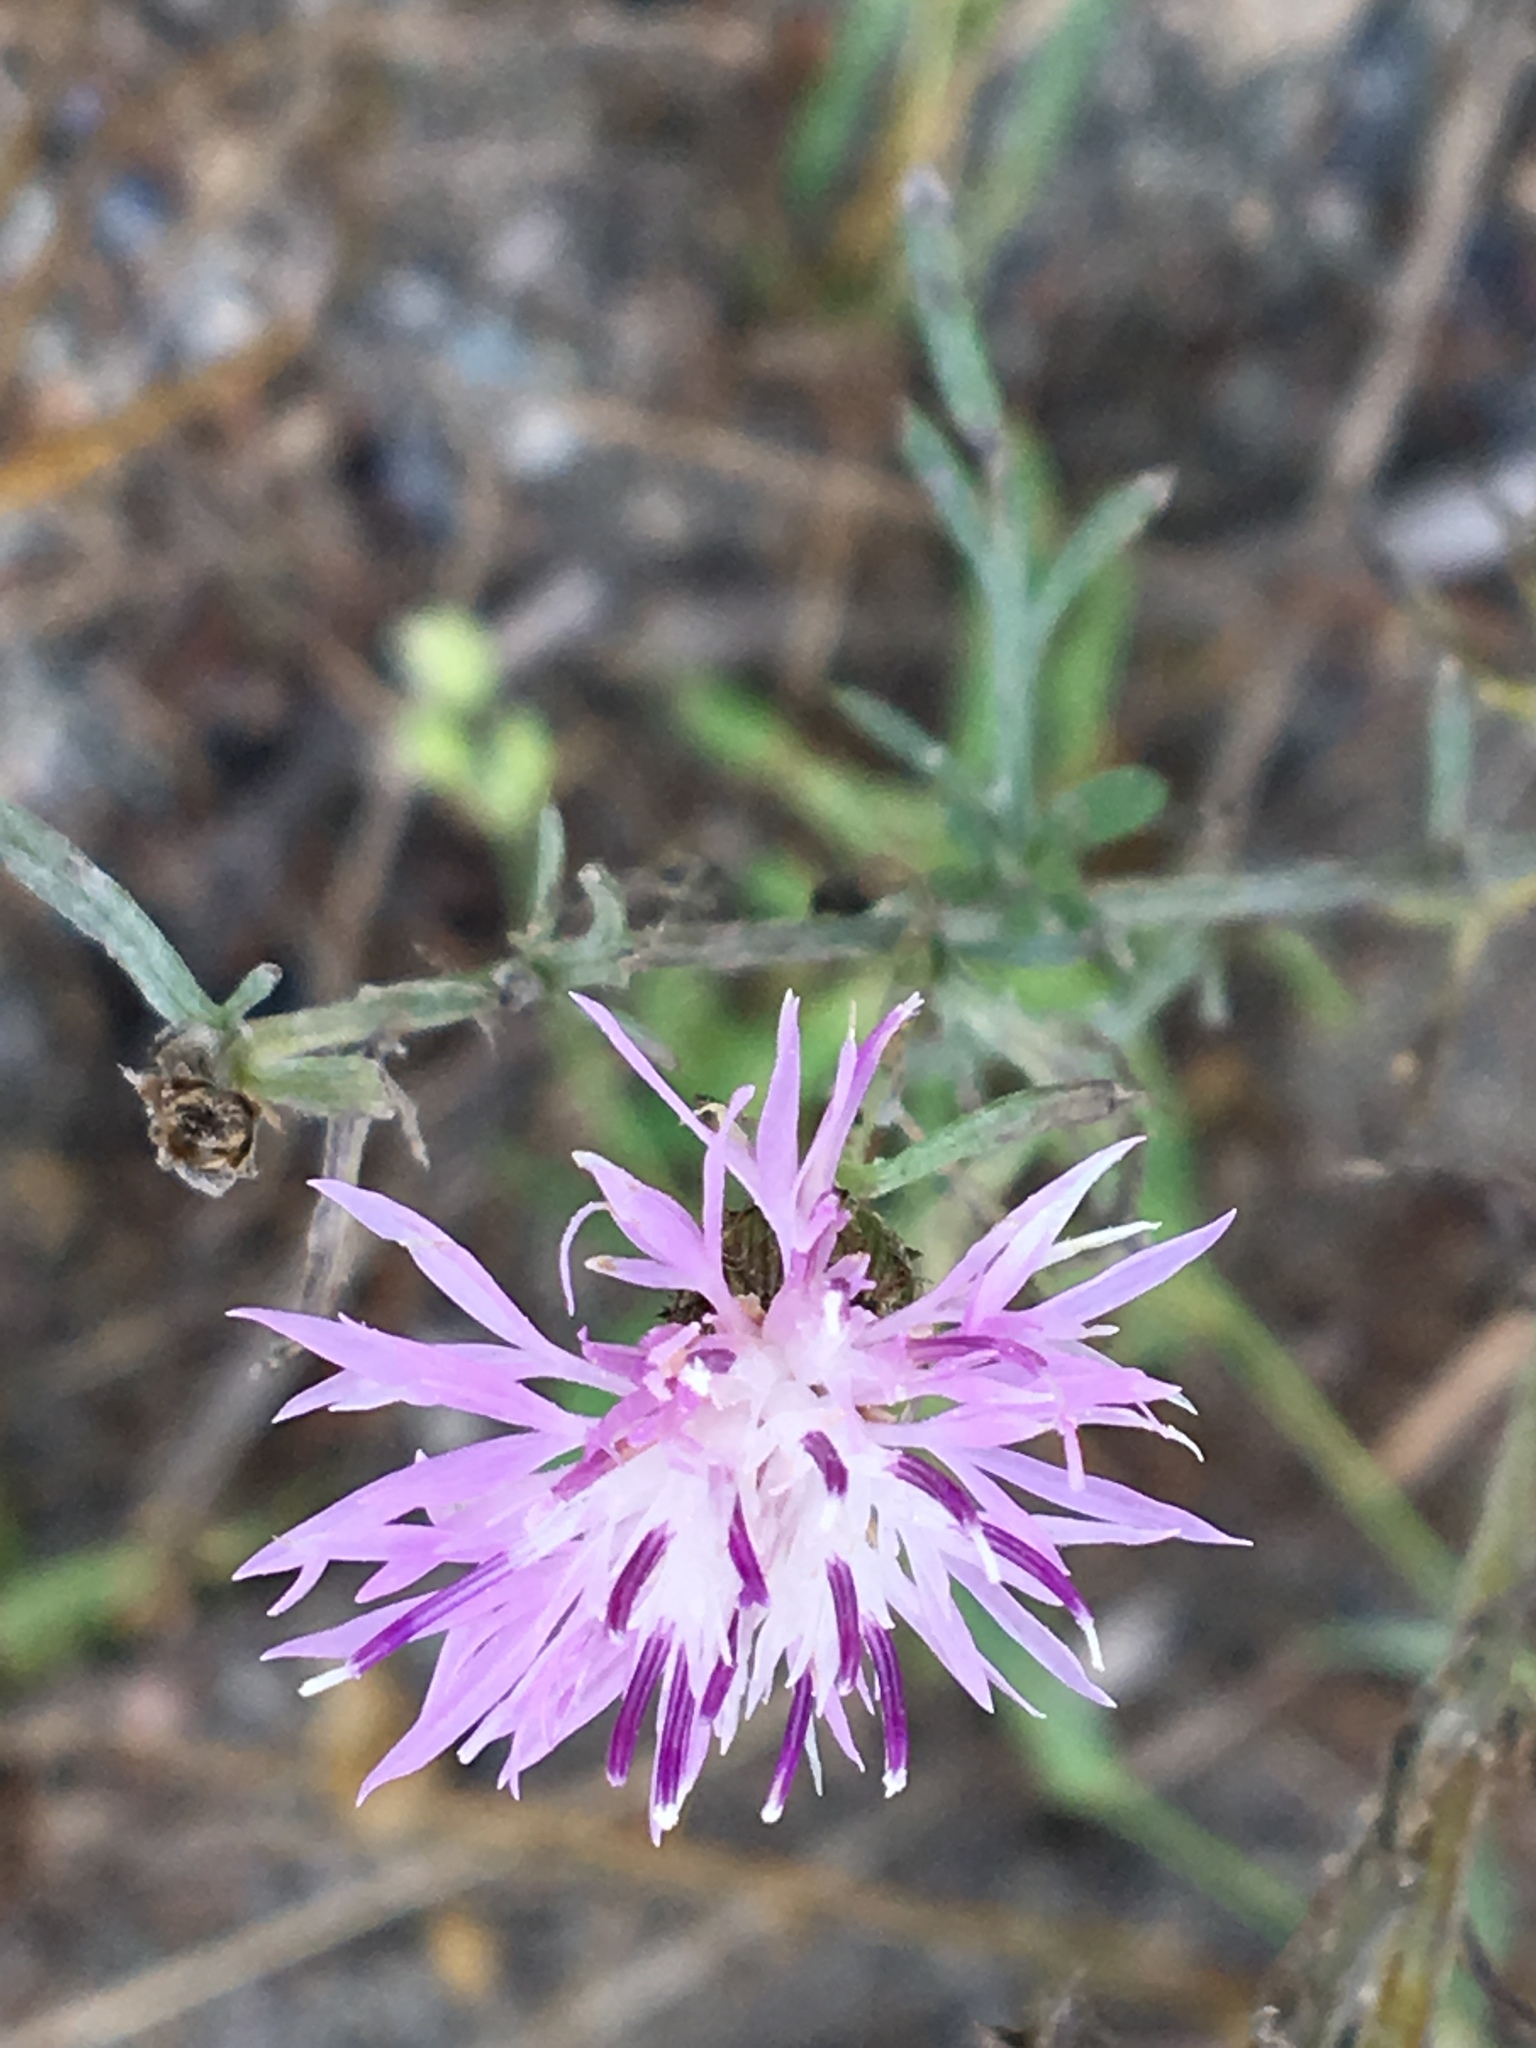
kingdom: Plantae
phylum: Tracheophyta
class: Magnoliopsida
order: Asterales
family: Asteraceae
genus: Centaurea
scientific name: Centaurea stoebe
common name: Spotted knapweed
